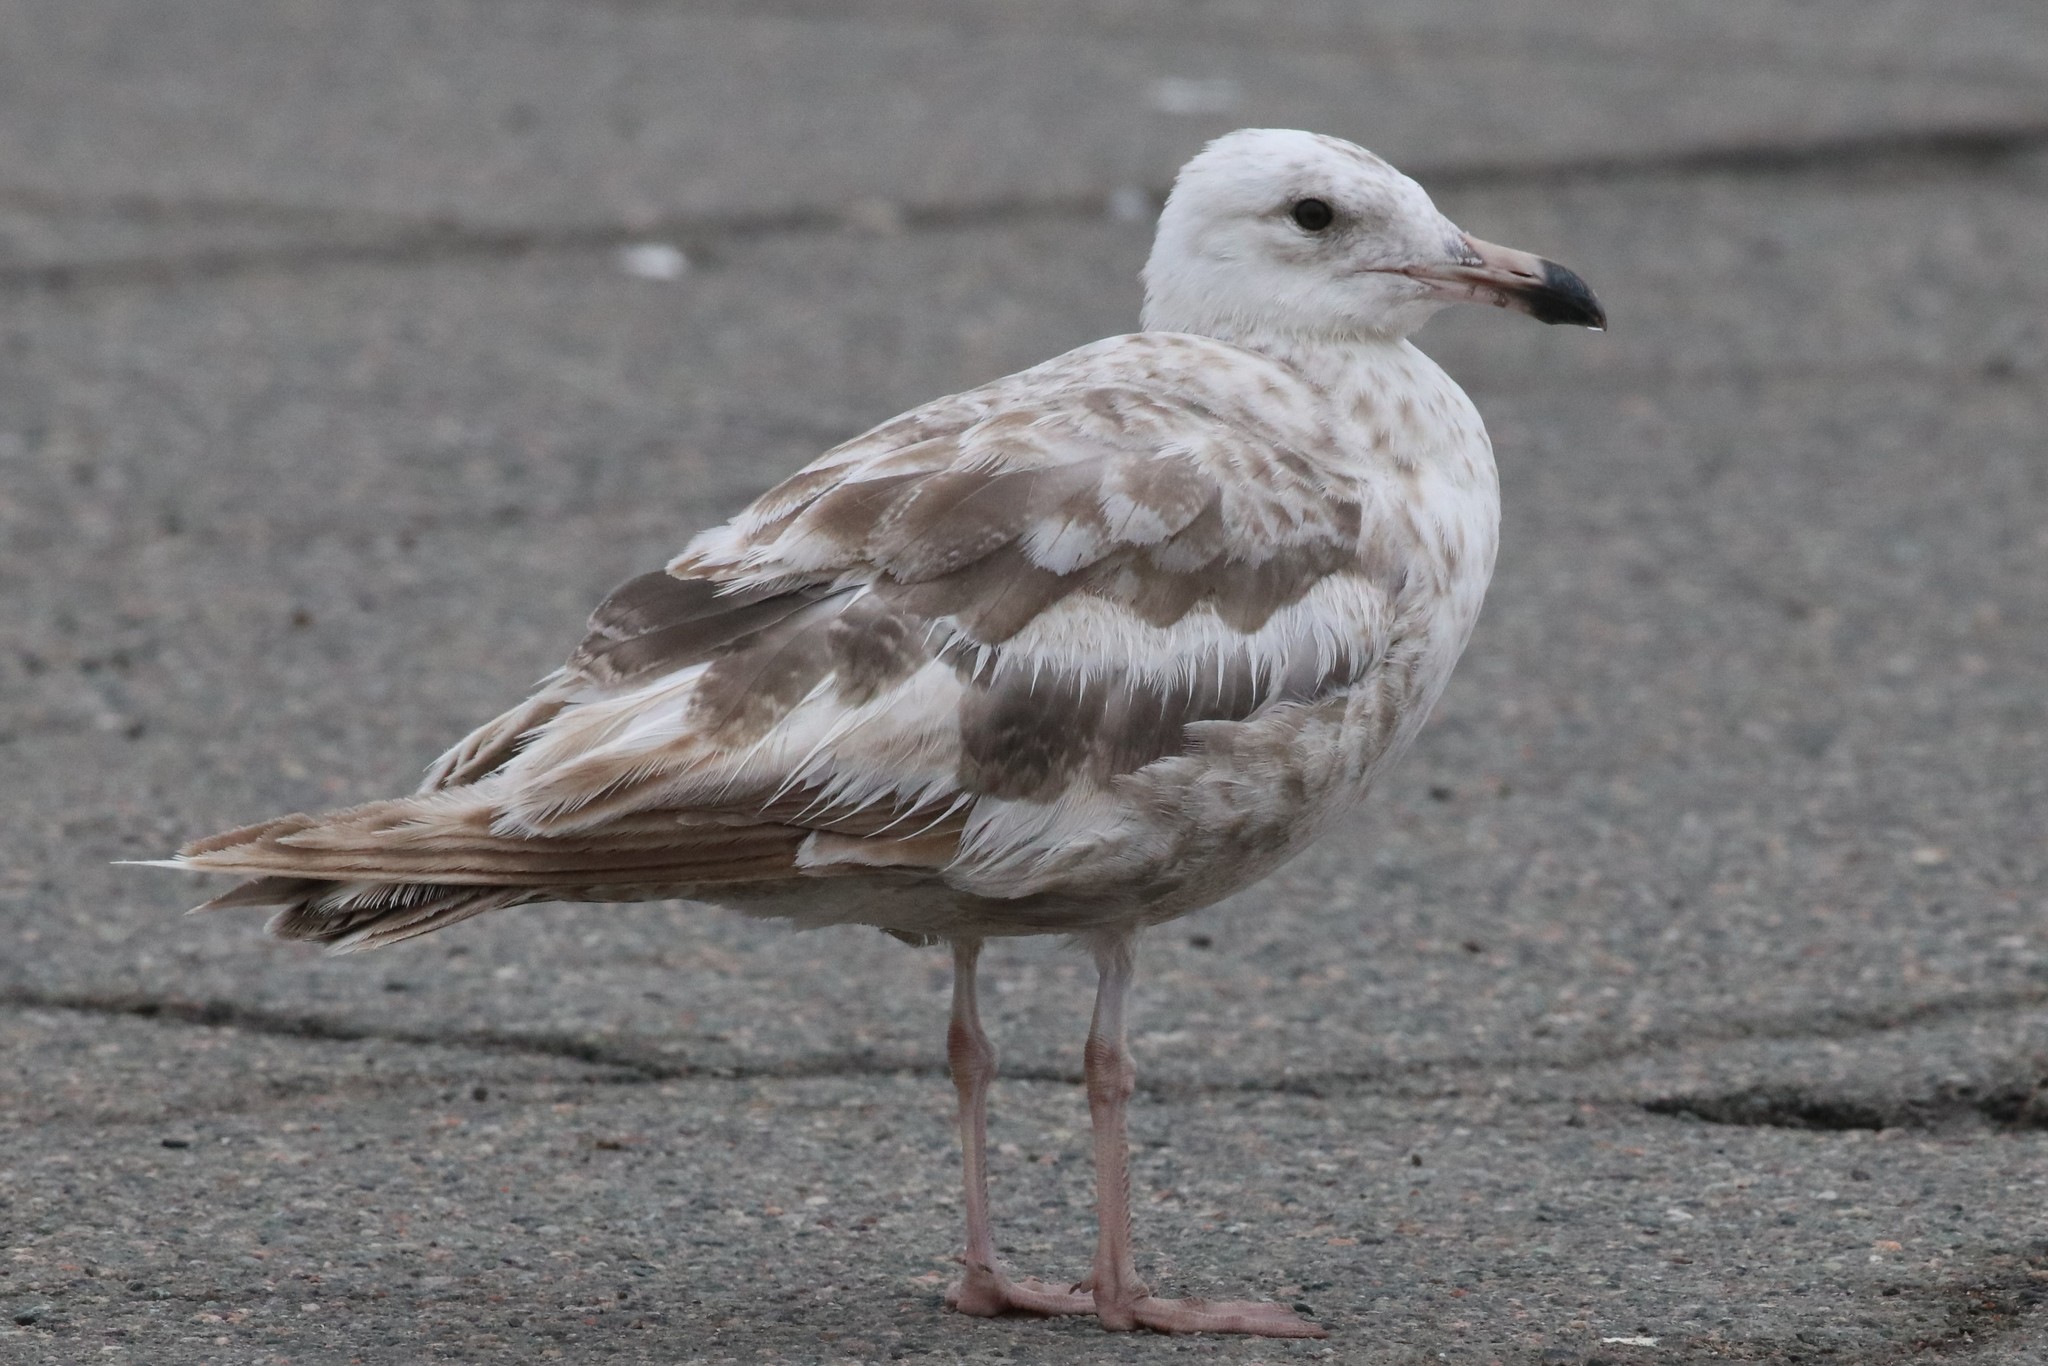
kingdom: Animalia
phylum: Chordata
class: Aves
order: Charadriiformes
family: Laridae
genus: Larus
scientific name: Larus argentatus
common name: Herring gull
